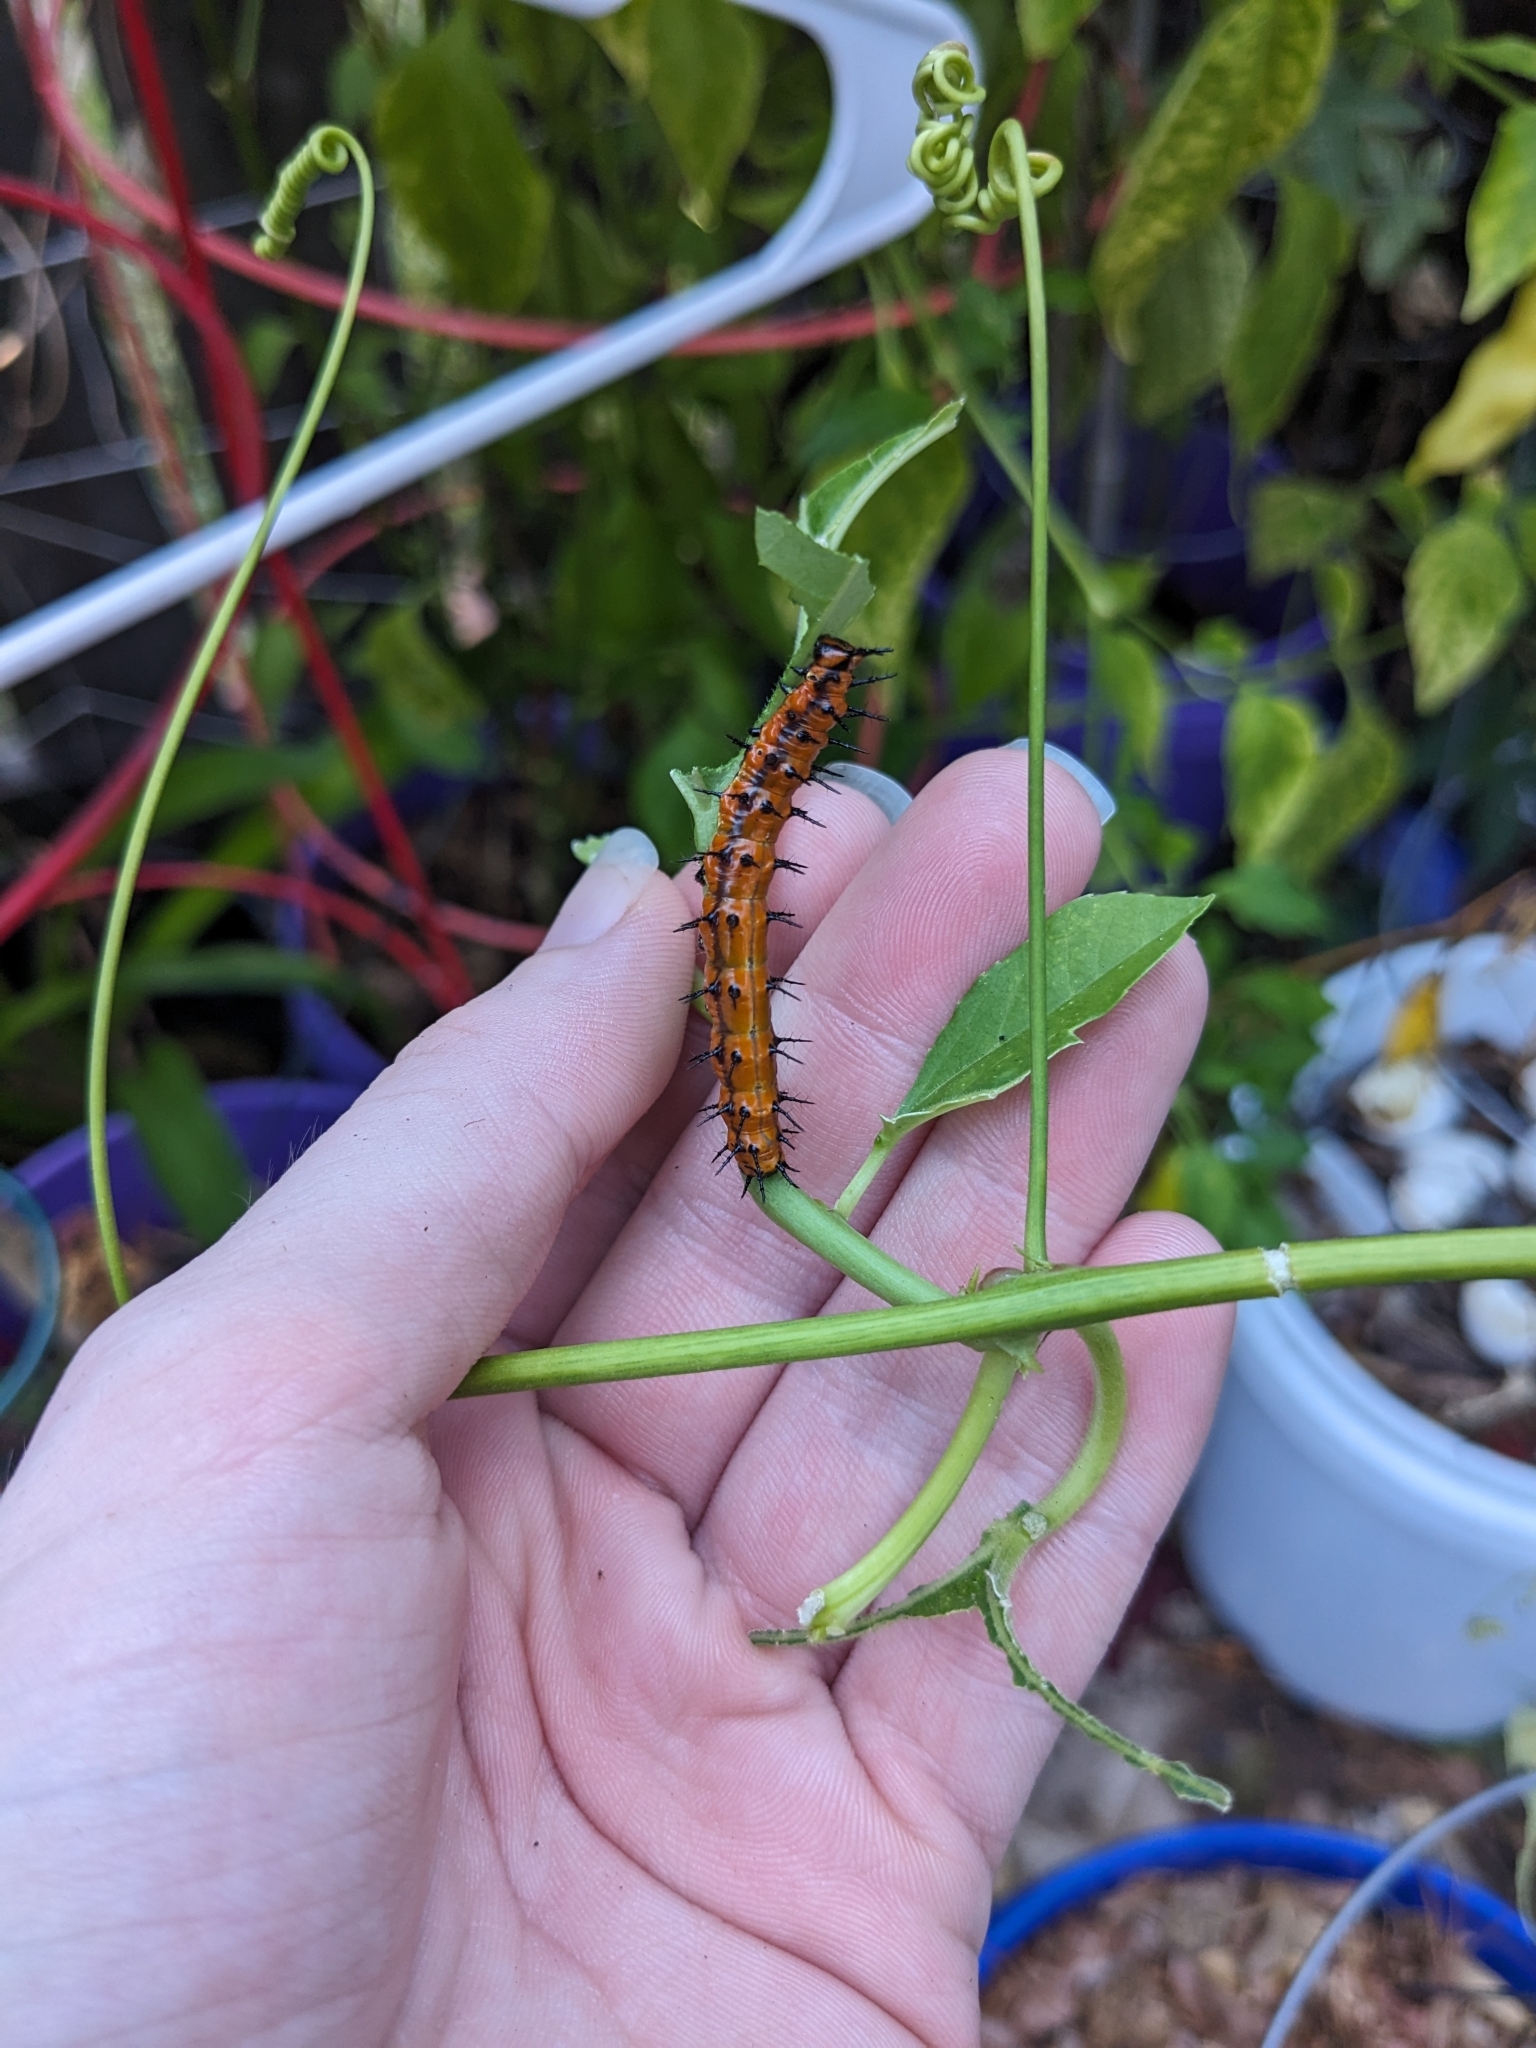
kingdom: Animalia
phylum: Arthropoda
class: Insecta
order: Lepidoptera
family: Nymphalidae
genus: Dione
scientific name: Dione vanillae
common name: Gulf fritillary
